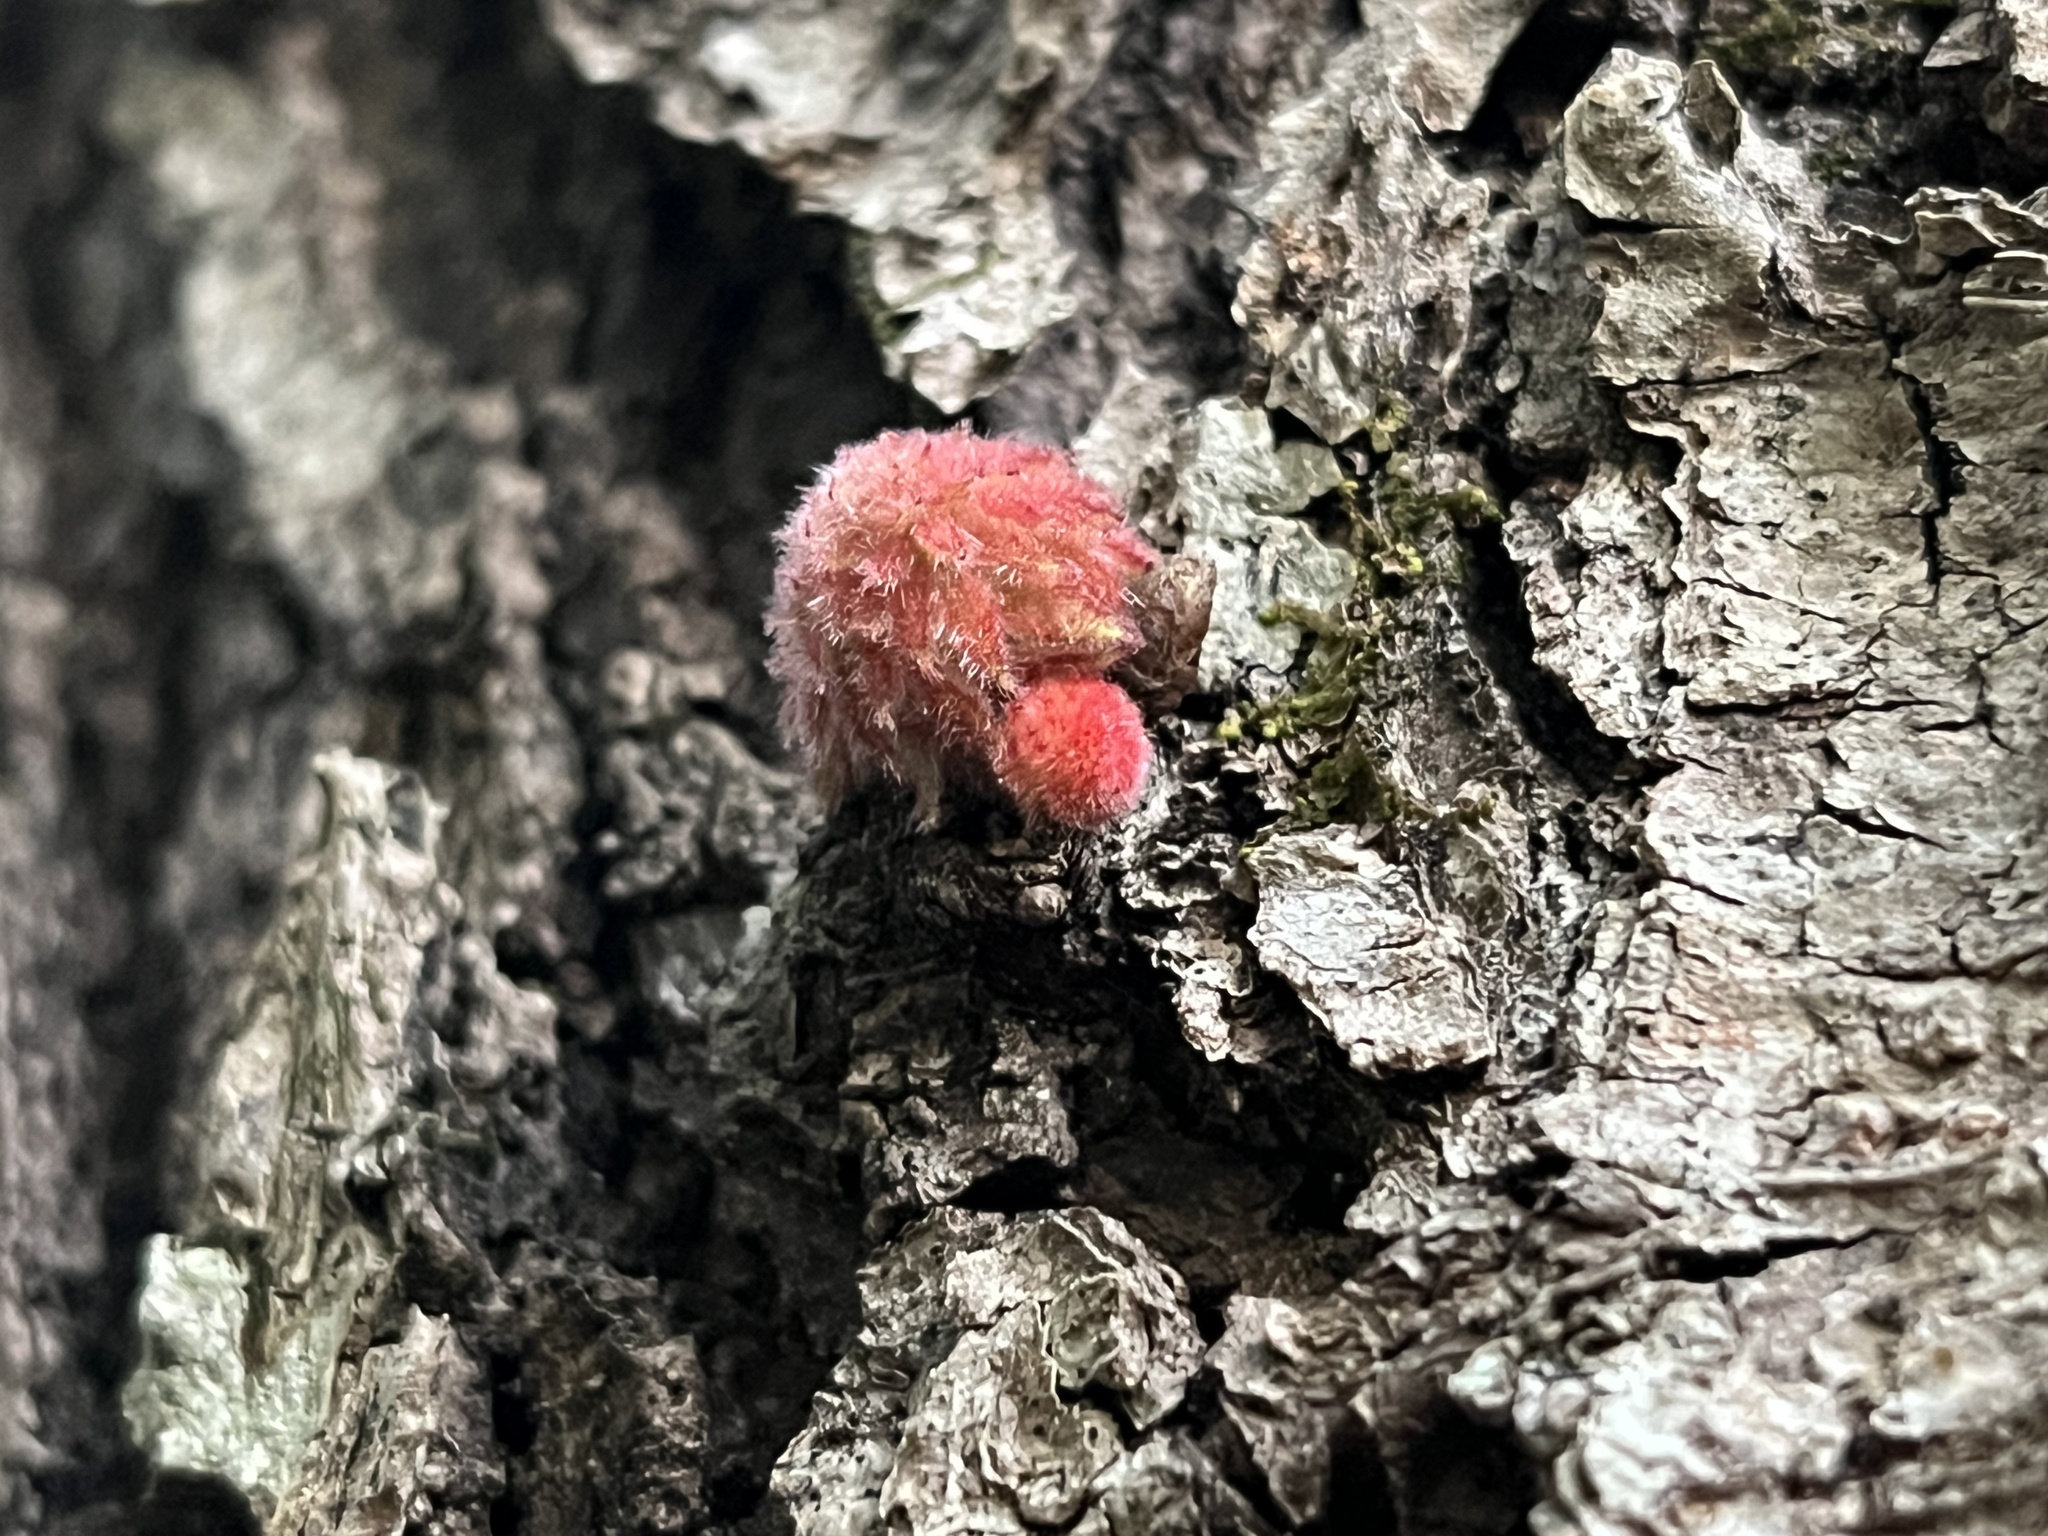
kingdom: Animalia
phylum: Arthropoda
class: Insecta
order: Hymenoptera
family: Cynipidae
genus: Dryocosmus
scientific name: Dryocosmus
